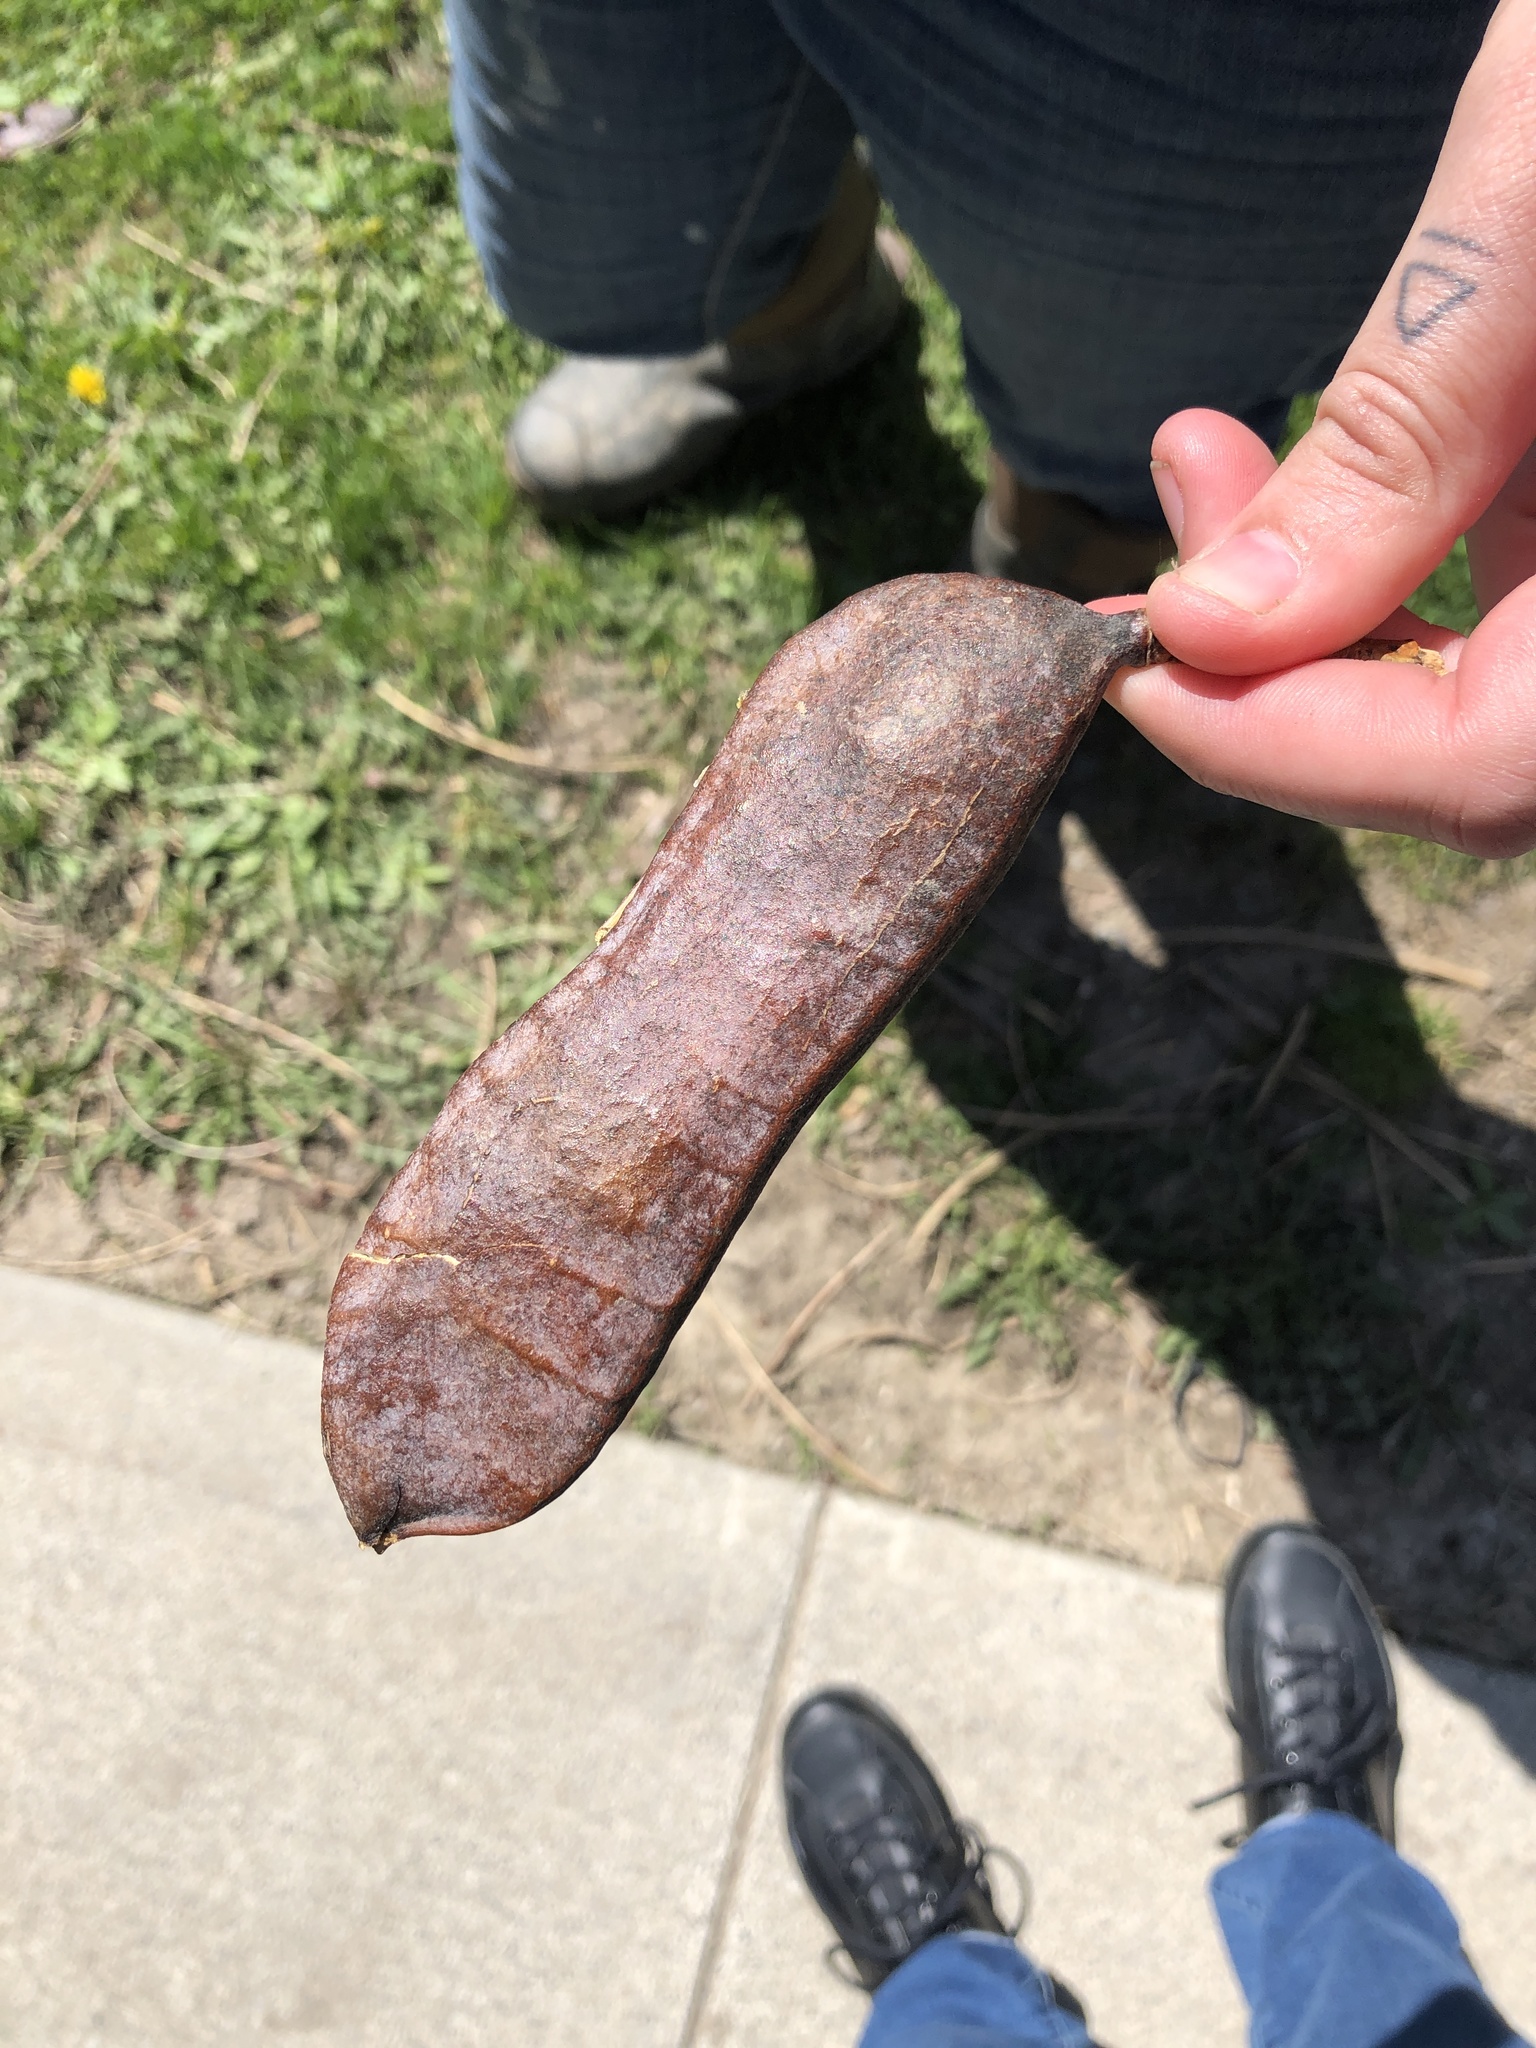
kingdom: Plantae
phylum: Tracheophyta
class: Magnoliopsida
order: Fabales
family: Fabaceae
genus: Gymnocladus
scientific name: Gymnocladus dioicus
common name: Kentucky coffee-tree
